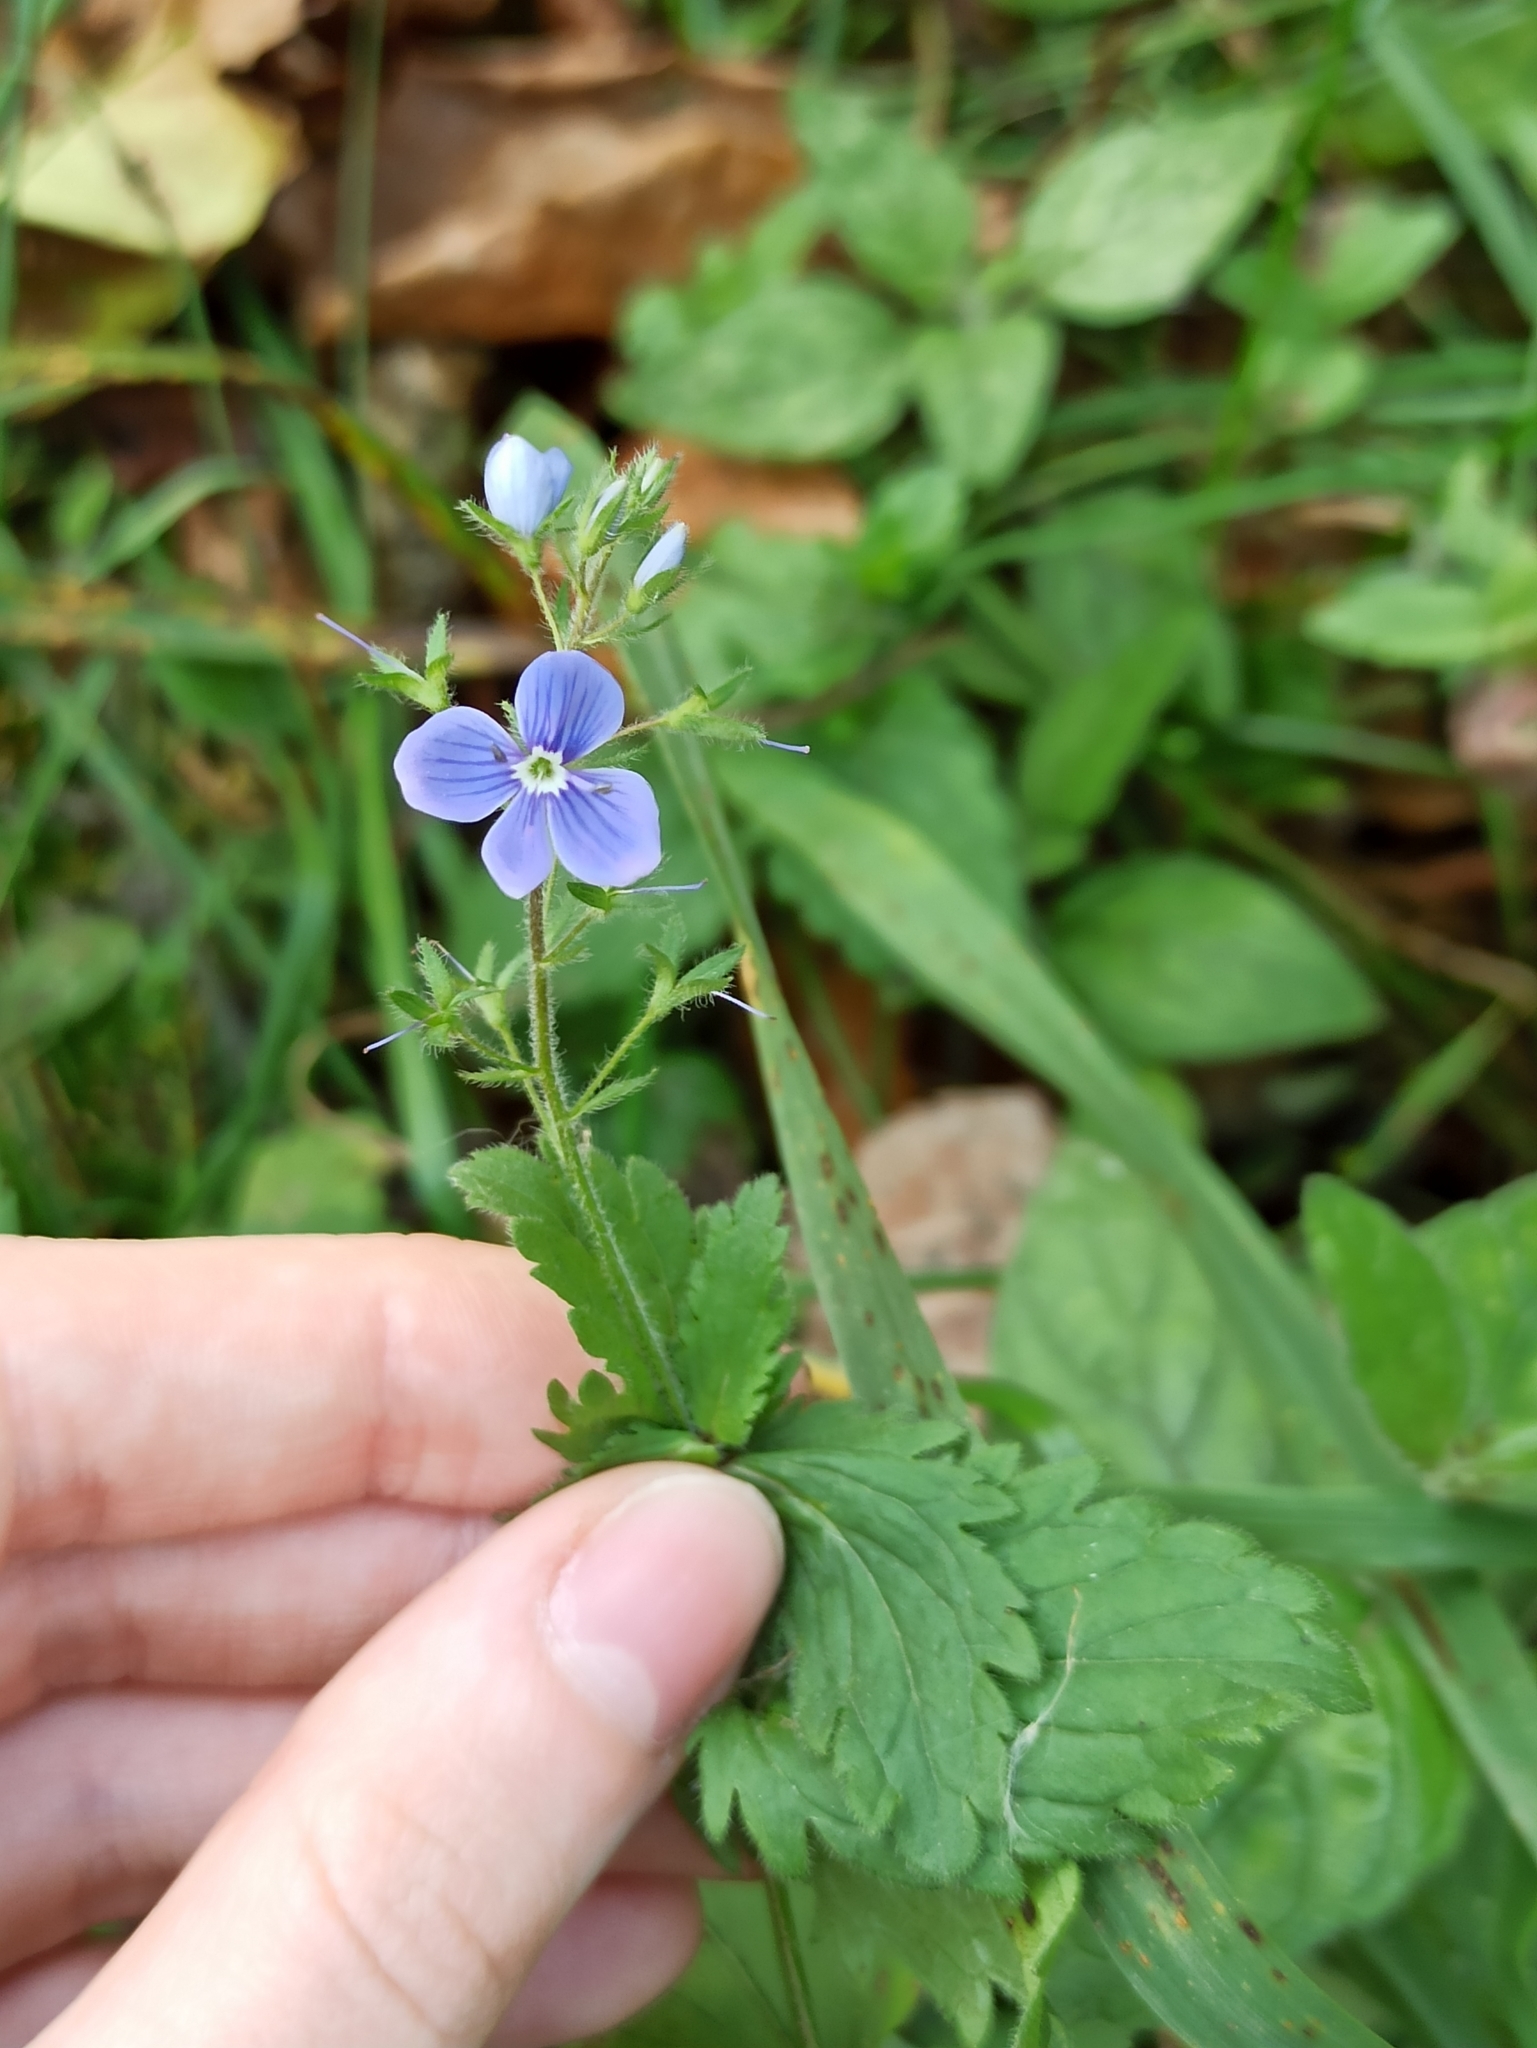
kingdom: Plantae
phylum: Tracheophyta
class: Magnoliopsida
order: Lamiales
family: Plantaginaceae
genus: Veronica
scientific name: Veronica chamaedrys
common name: Germander speedwell
